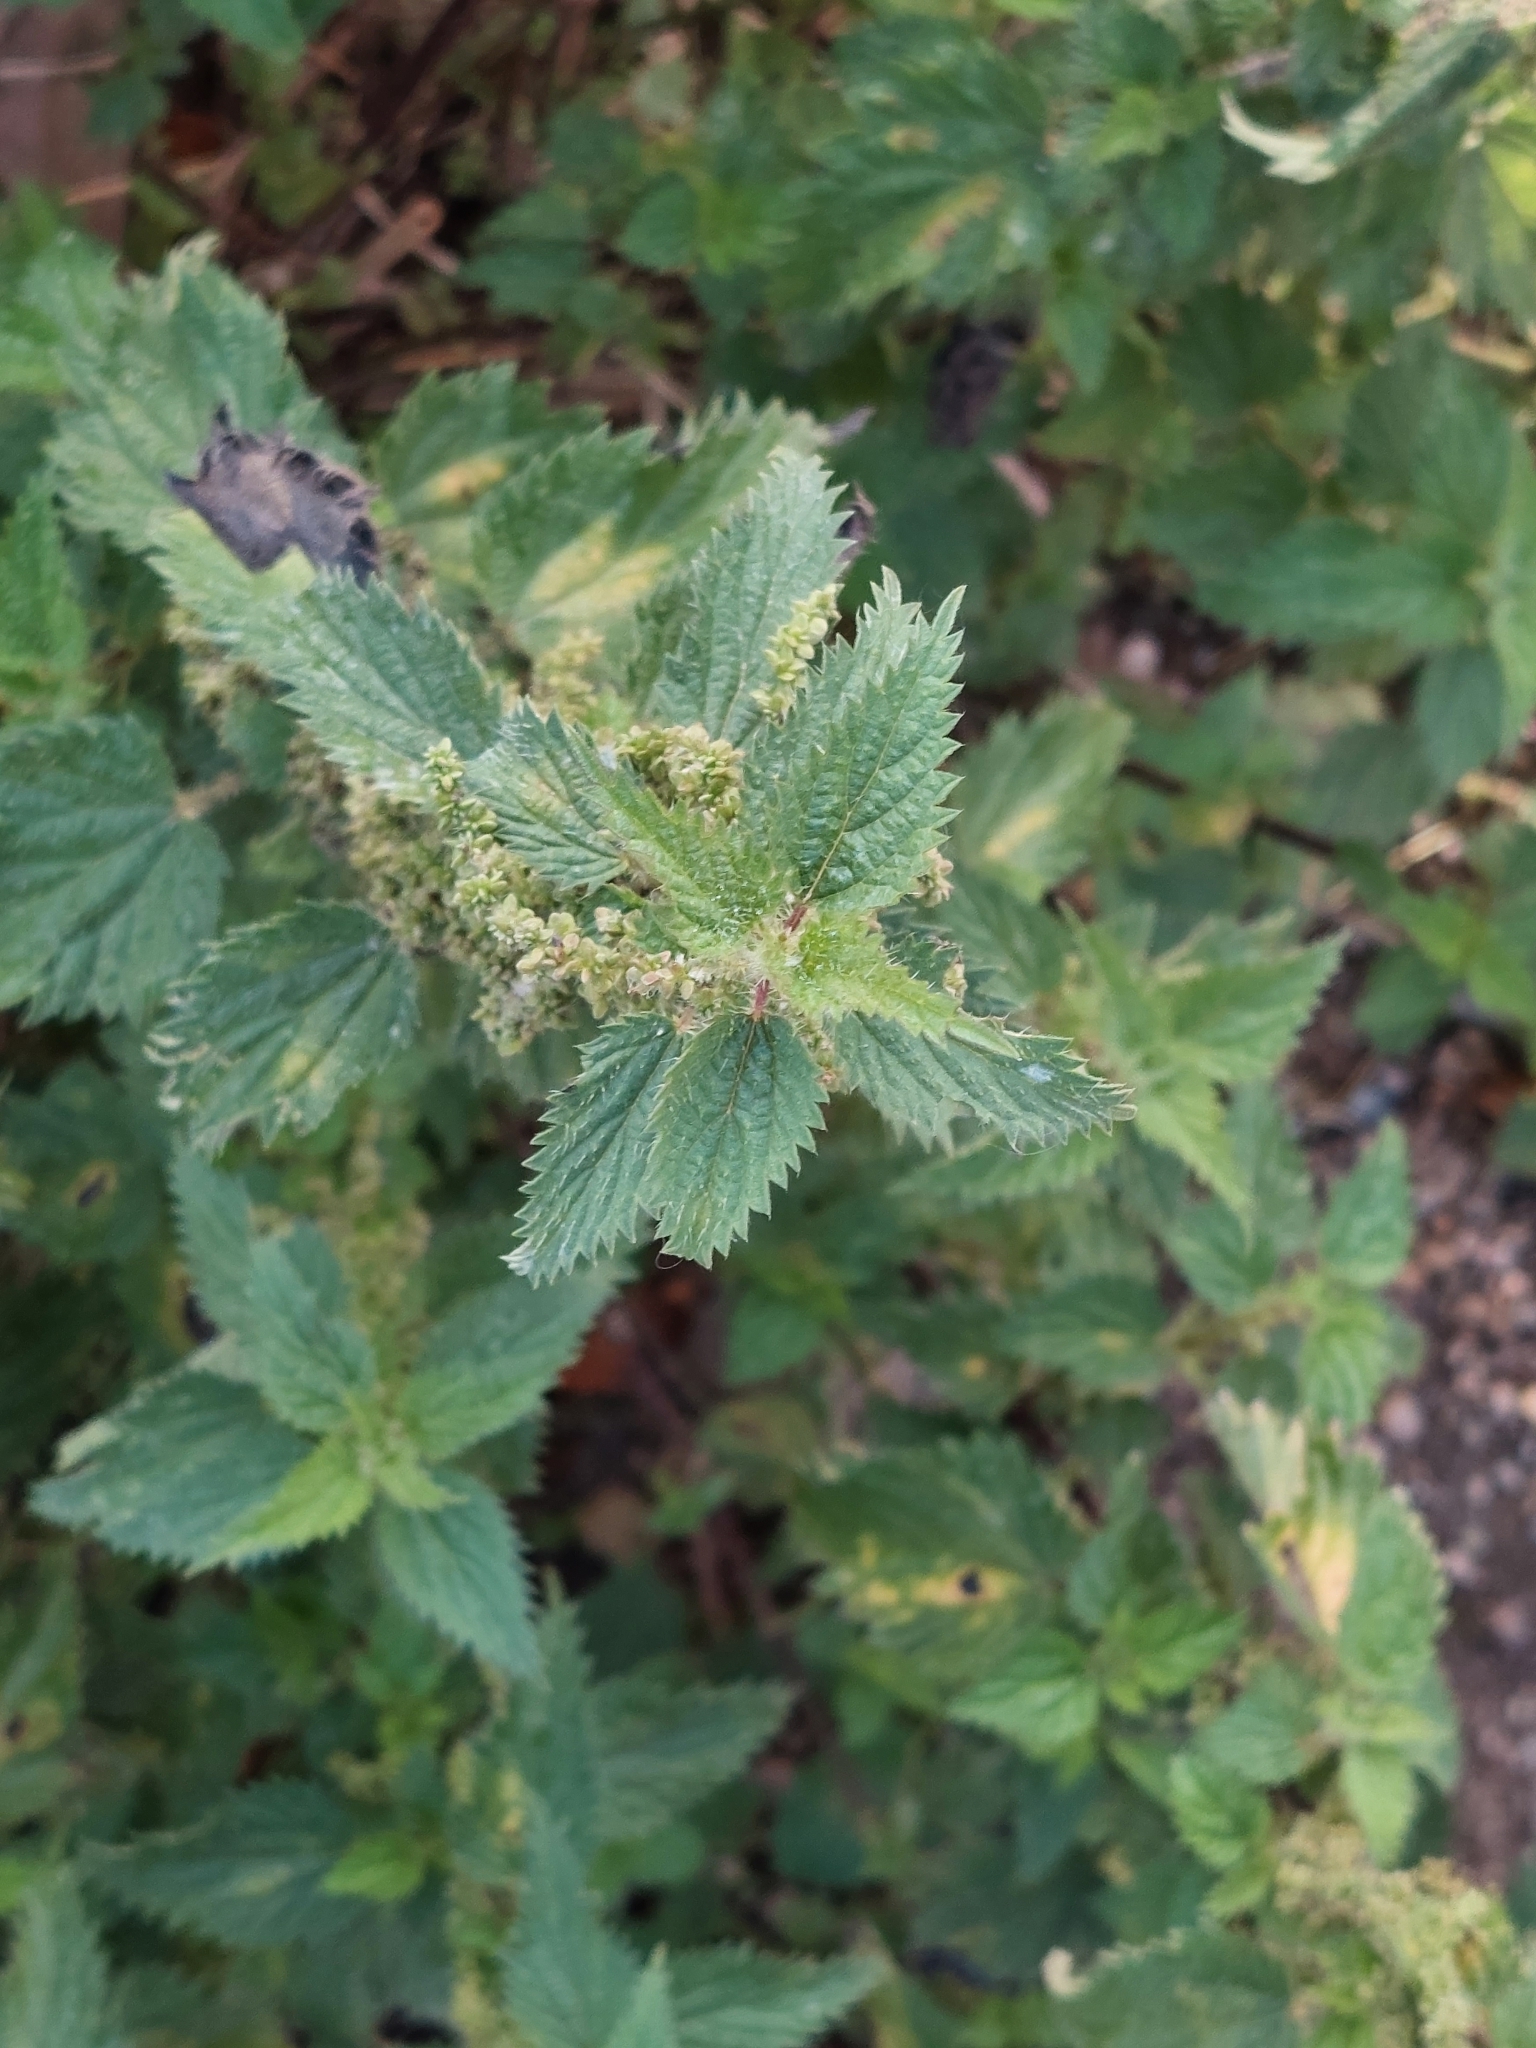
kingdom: Plantae
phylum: Tracheophyta
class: Magnoliopsida
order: Rosales
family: Urticaceae
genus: Urtica
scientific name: Urtica dioica
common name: Common nettle
